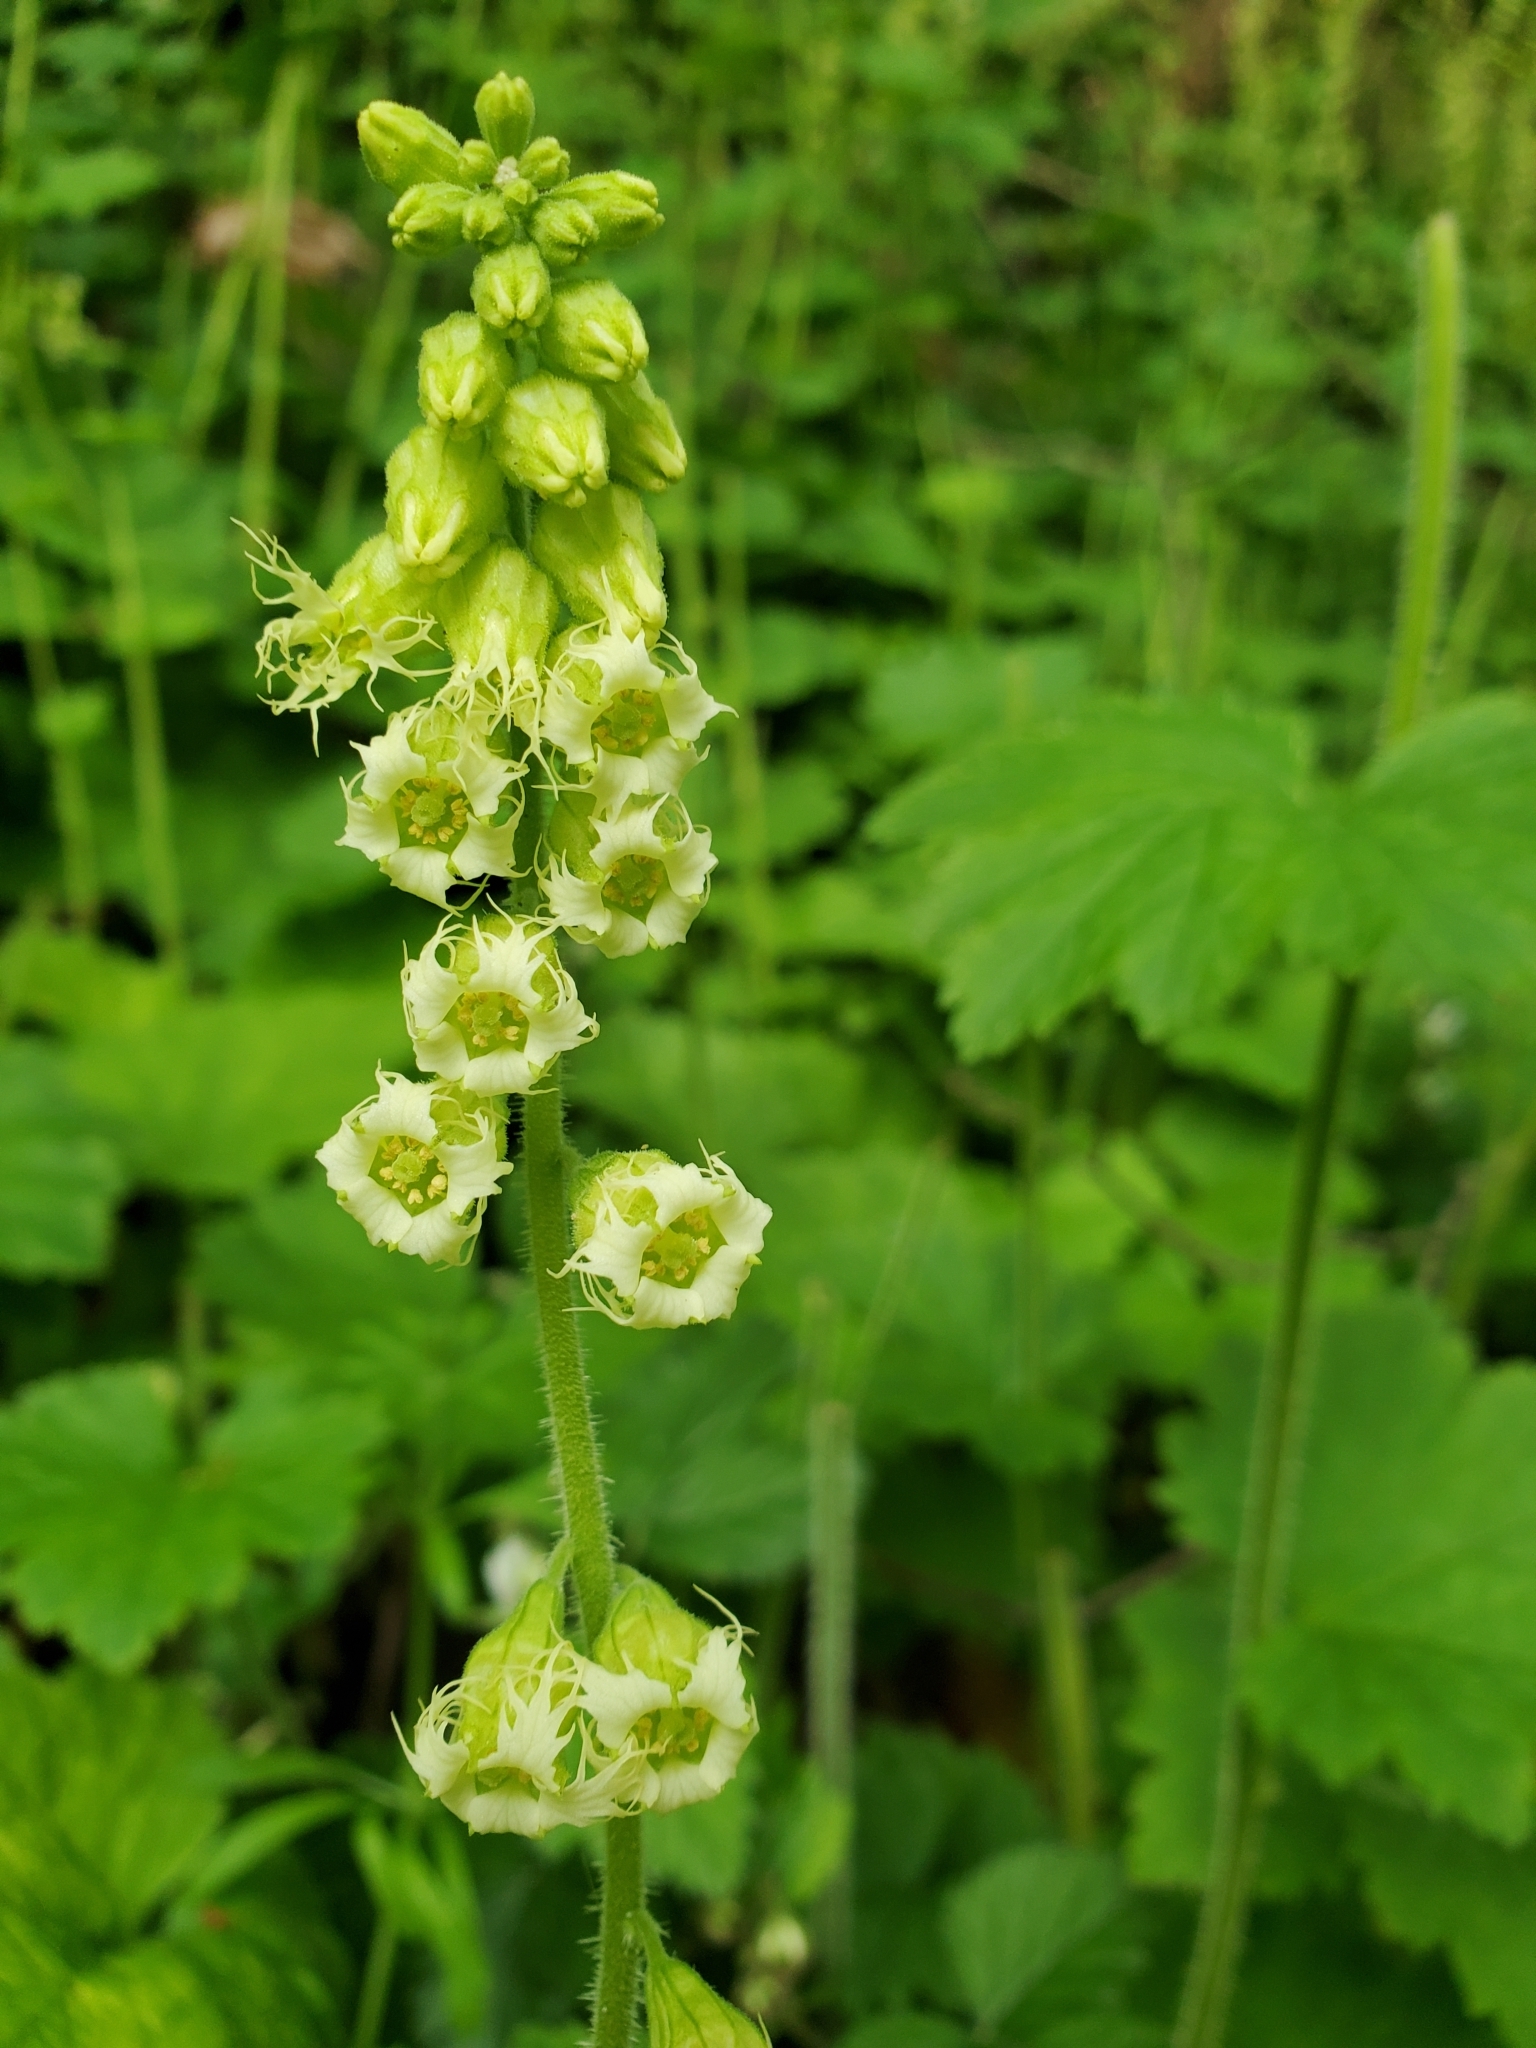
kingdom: Plantae
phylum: Tracheophyta
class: Magnoliopsida
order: Saxifragales
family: Saxifragaceae
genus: Tellima
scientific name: Tellima grandiflora
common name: Fringecups
